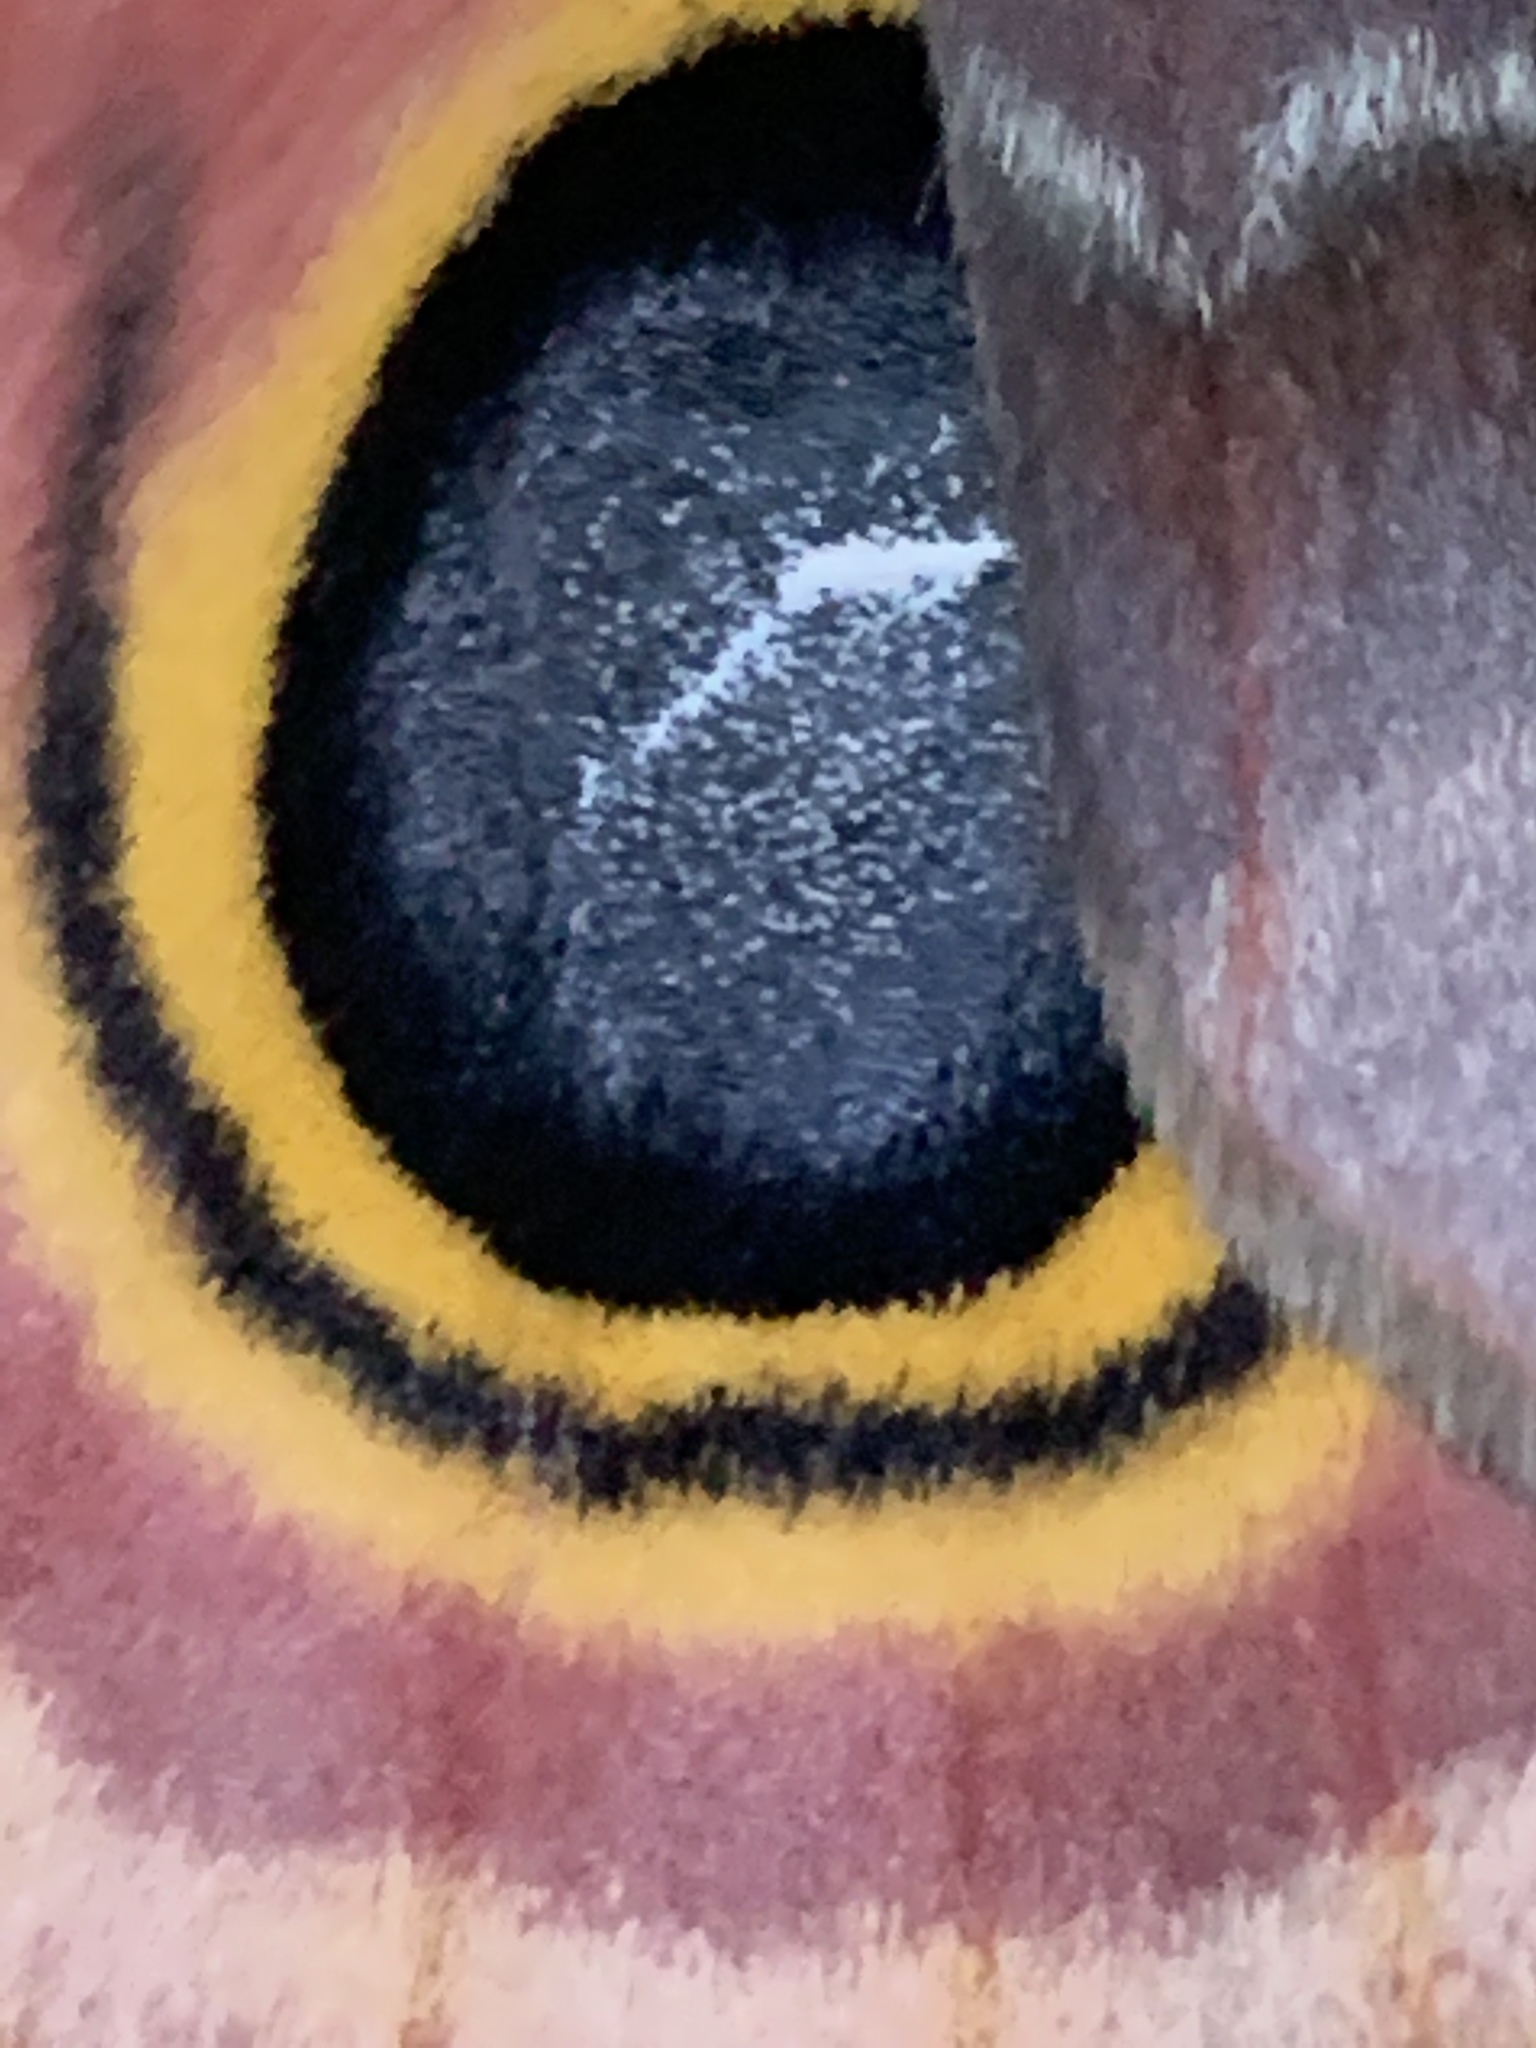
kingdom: Animalia
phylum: Arthropoda
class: Insecta
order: Lepidoptera
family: Saturniidae
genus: Automeris
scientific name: Automeris io
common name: Io moth
